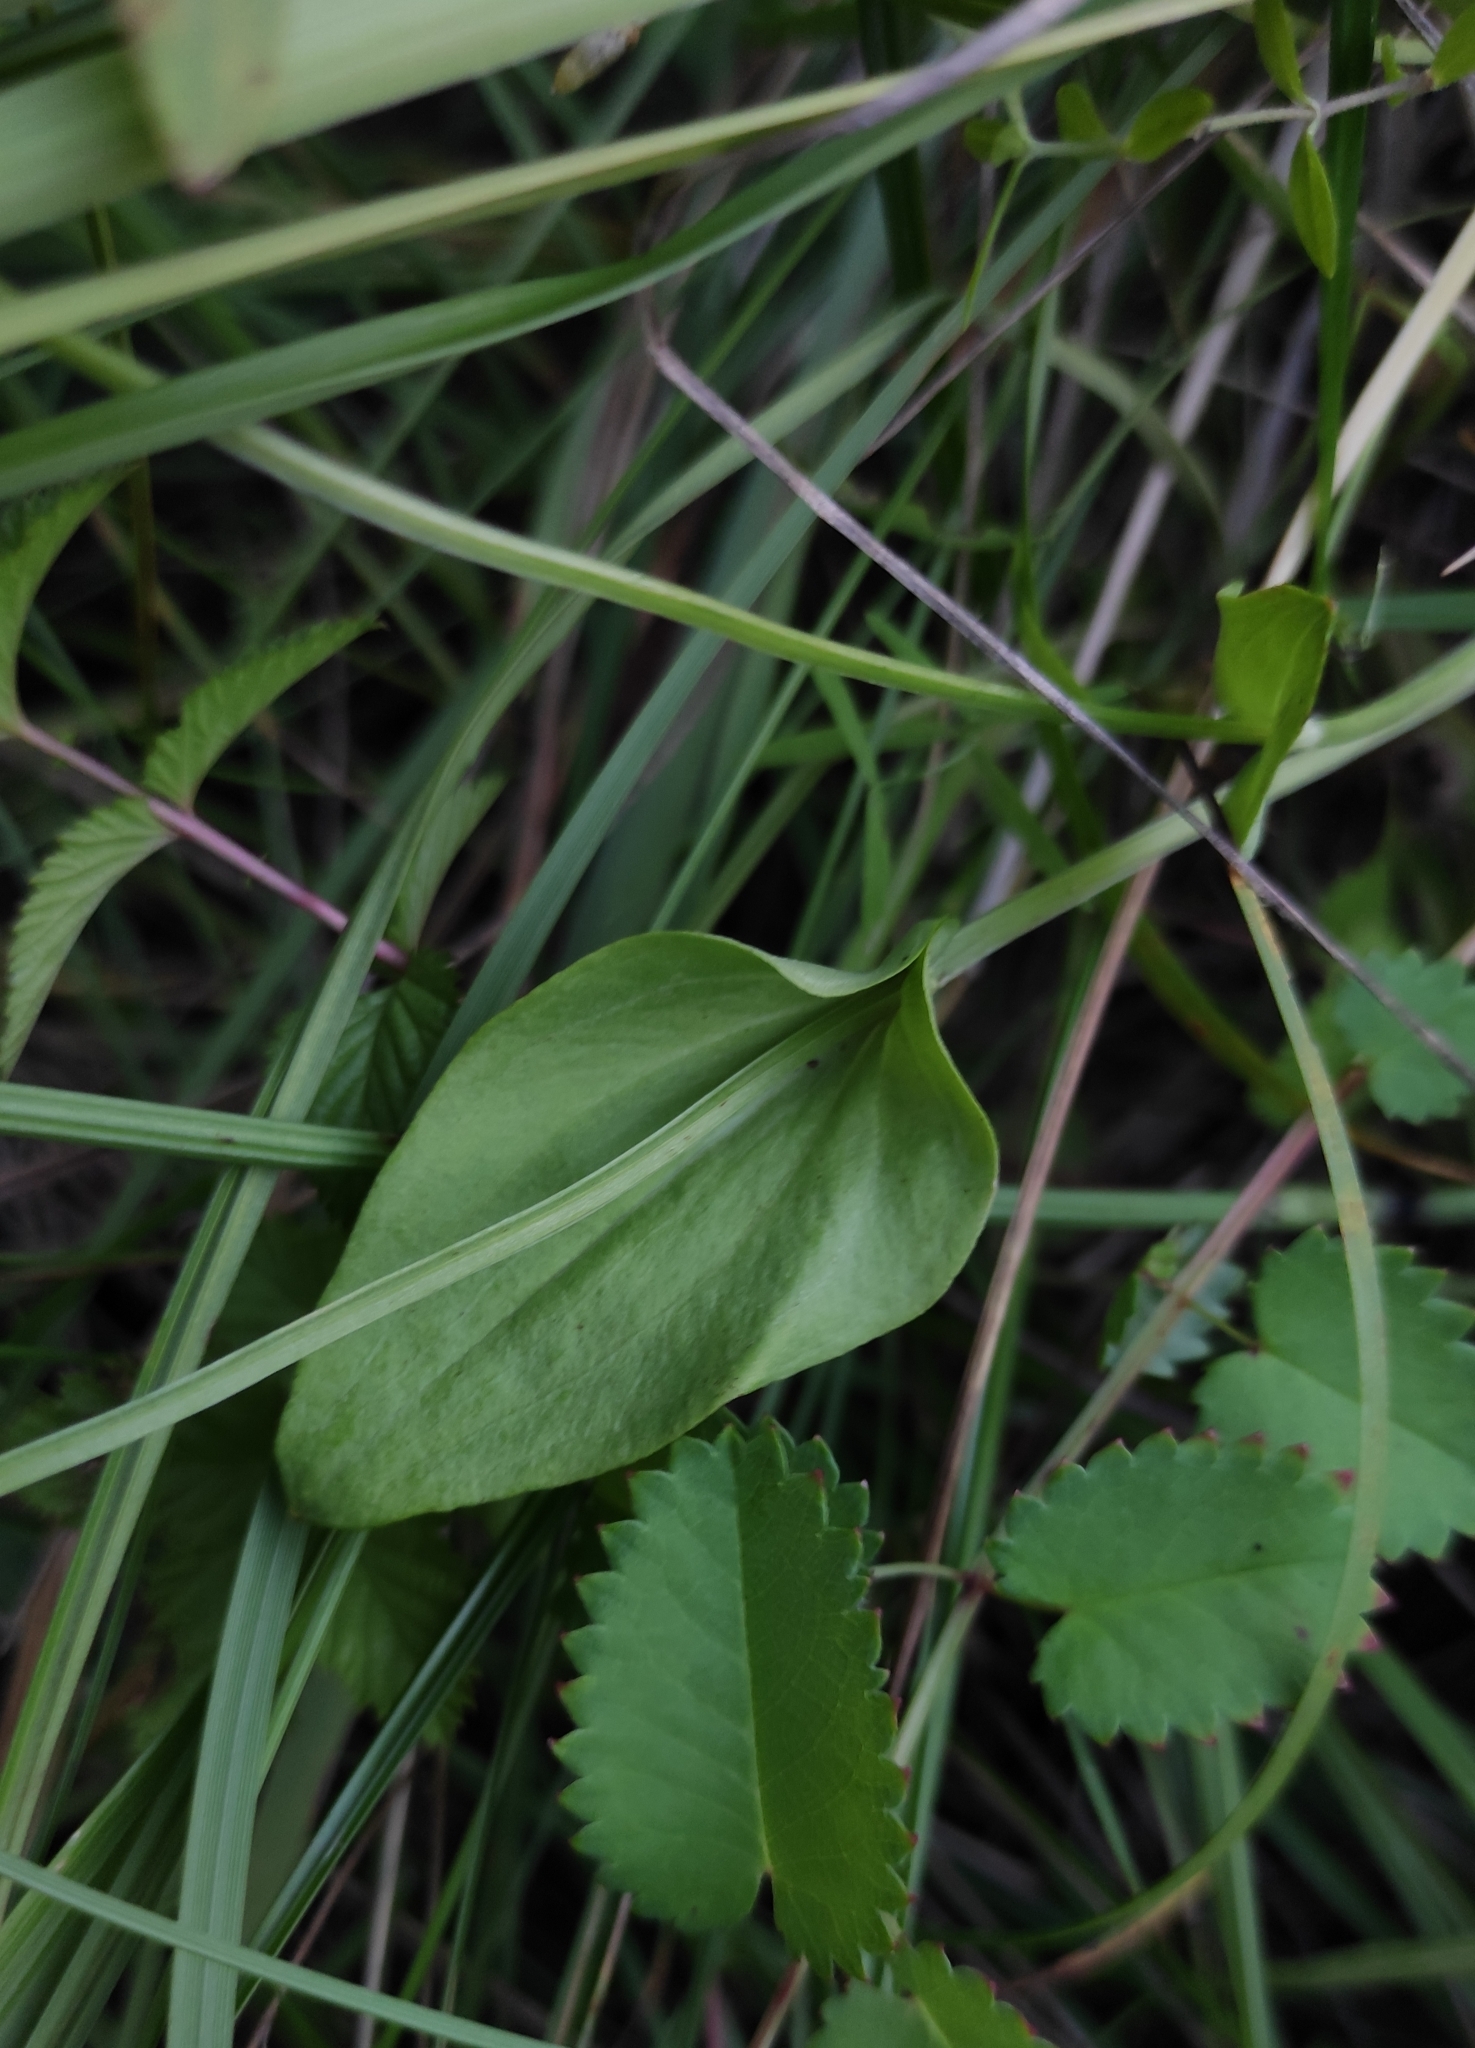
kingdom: Plantae
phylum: Tracheophyta
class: Magnoliopsida
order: Celastrales
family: Parnassiaceae
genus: Parnassia
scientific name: Parnassia palustris
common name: Grass-of-parnassus
